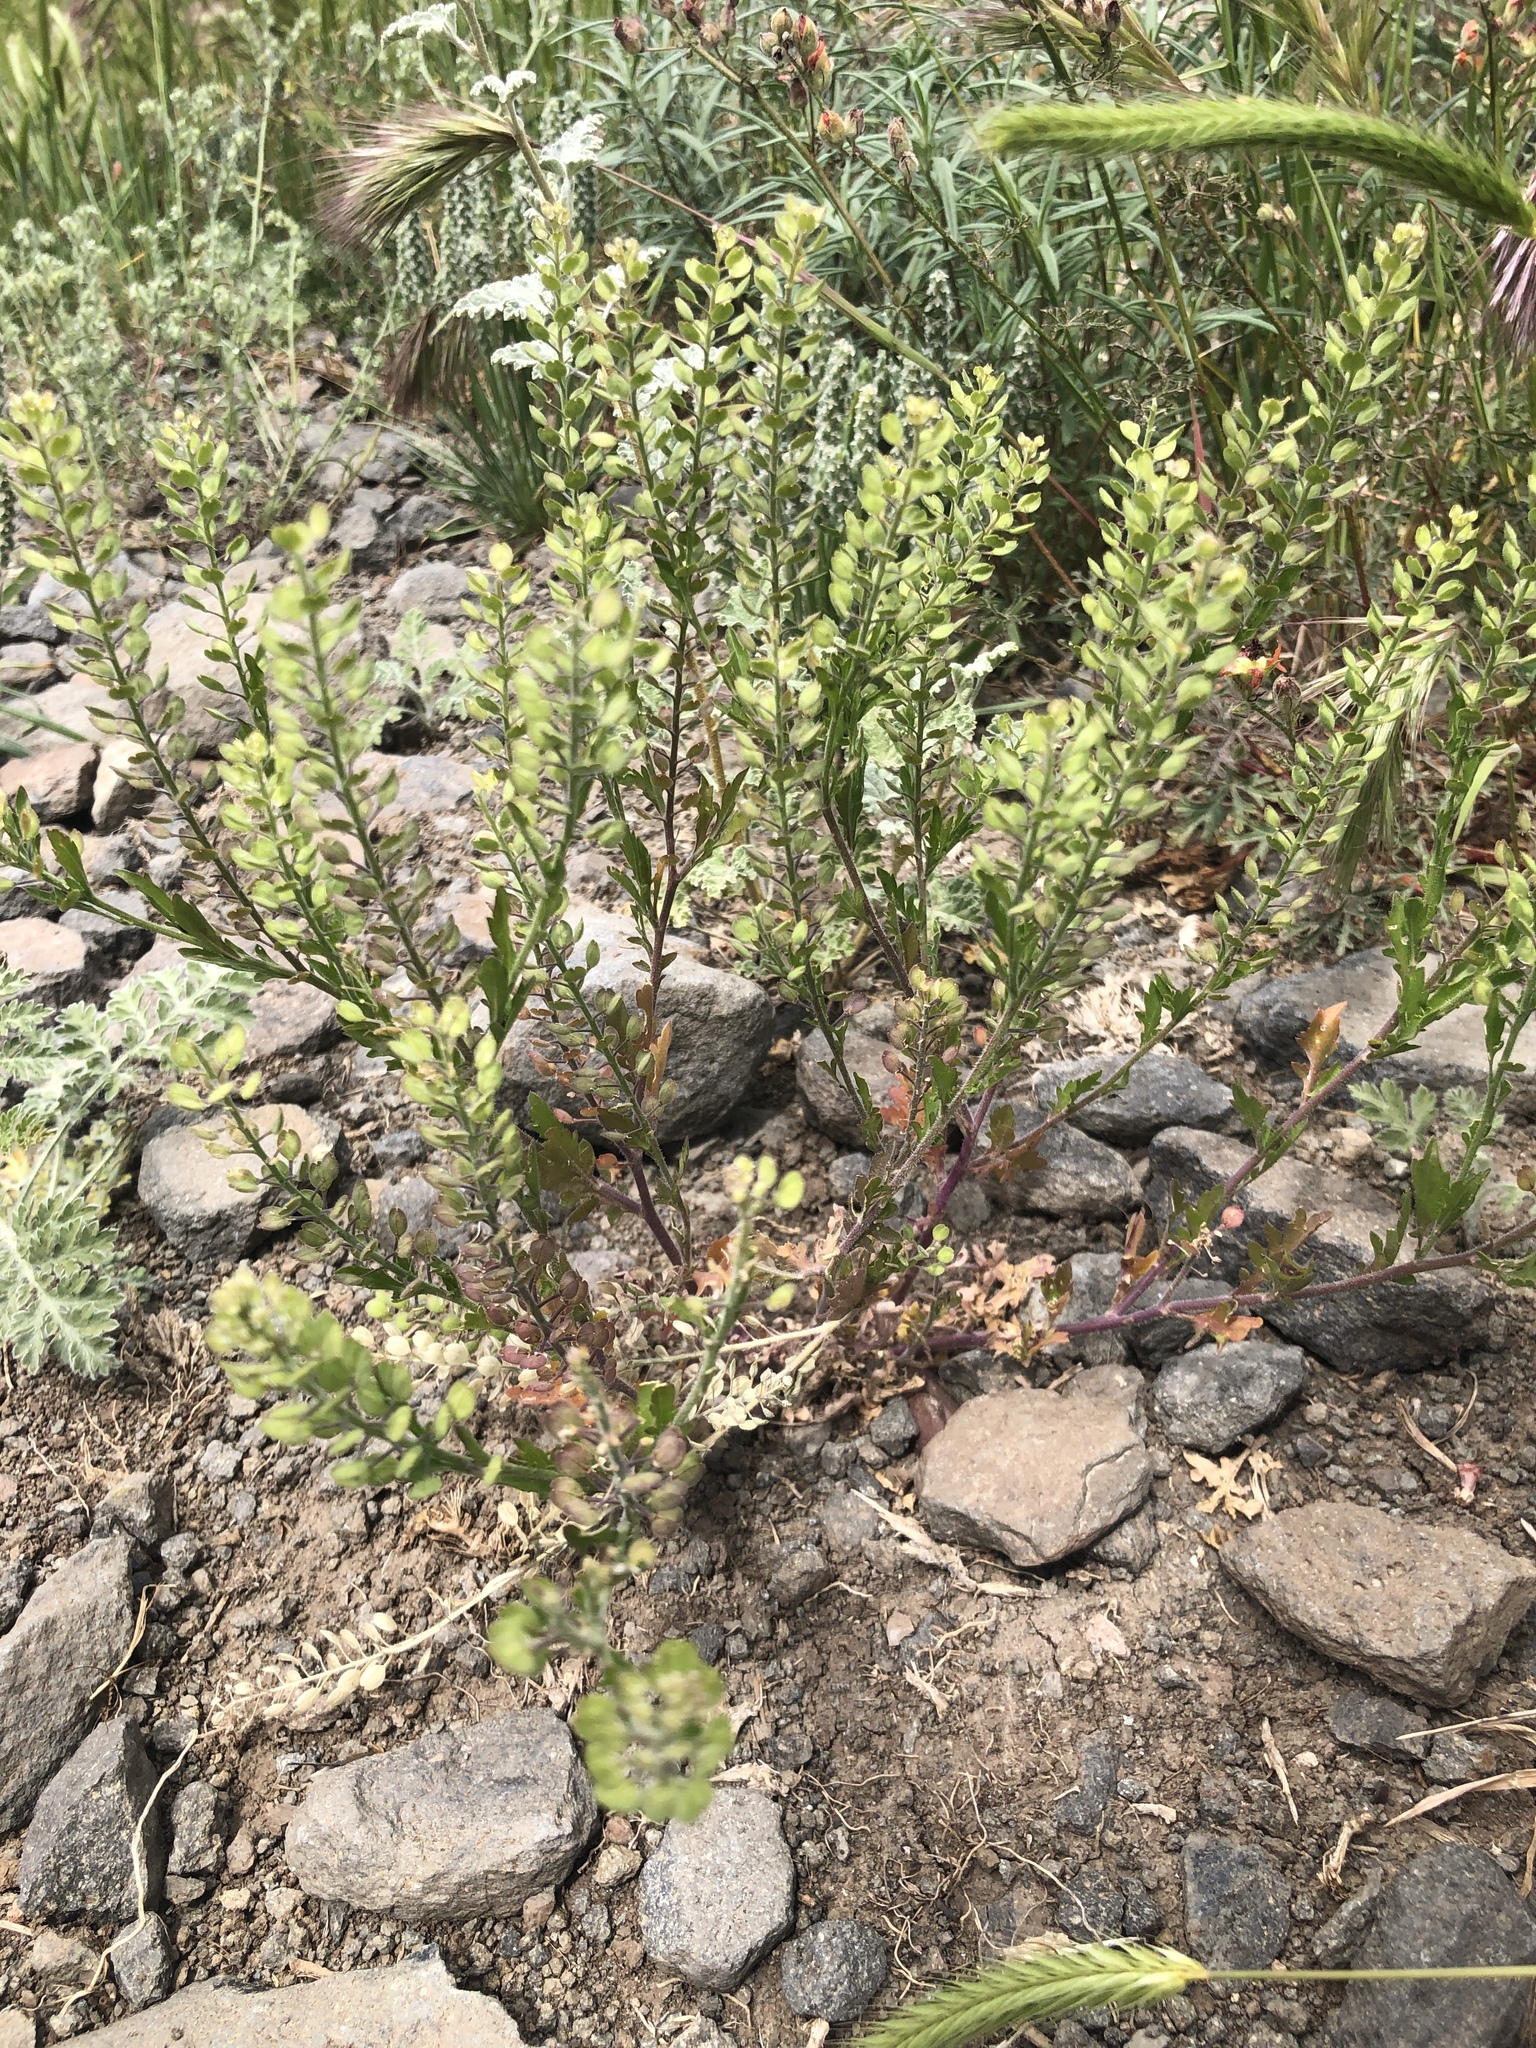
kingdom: Plantae
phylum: Tracheophyta
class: Magnoliopsida
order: Brassicales
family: Brassicaceae
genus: Lepidium
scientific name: Lepidium virginicum
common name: Least pepperwort
